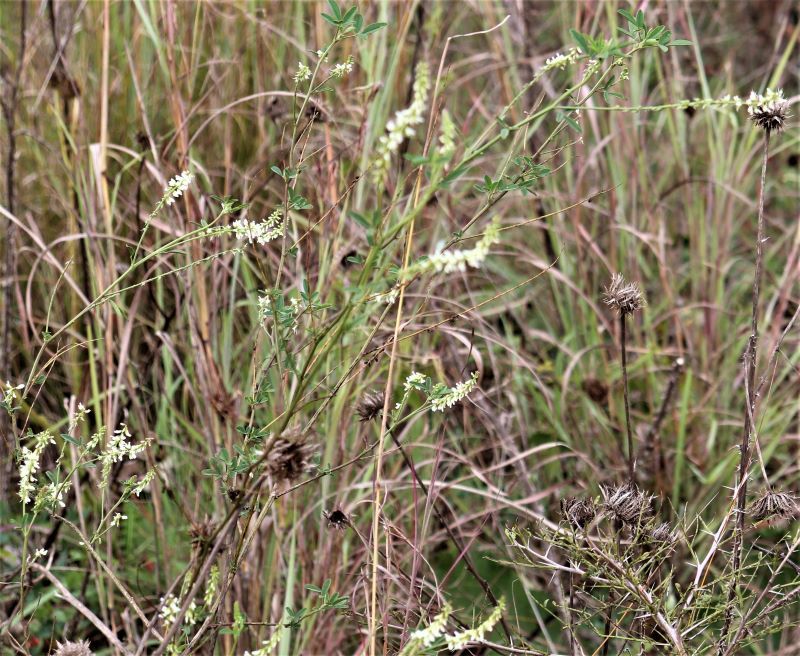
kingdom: Plantae
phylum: Tracheophyta
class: Magnoliopsida
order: Fabales
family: Fabaceae
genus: Melilotus
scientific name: Melilotus albus
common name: White melilot
